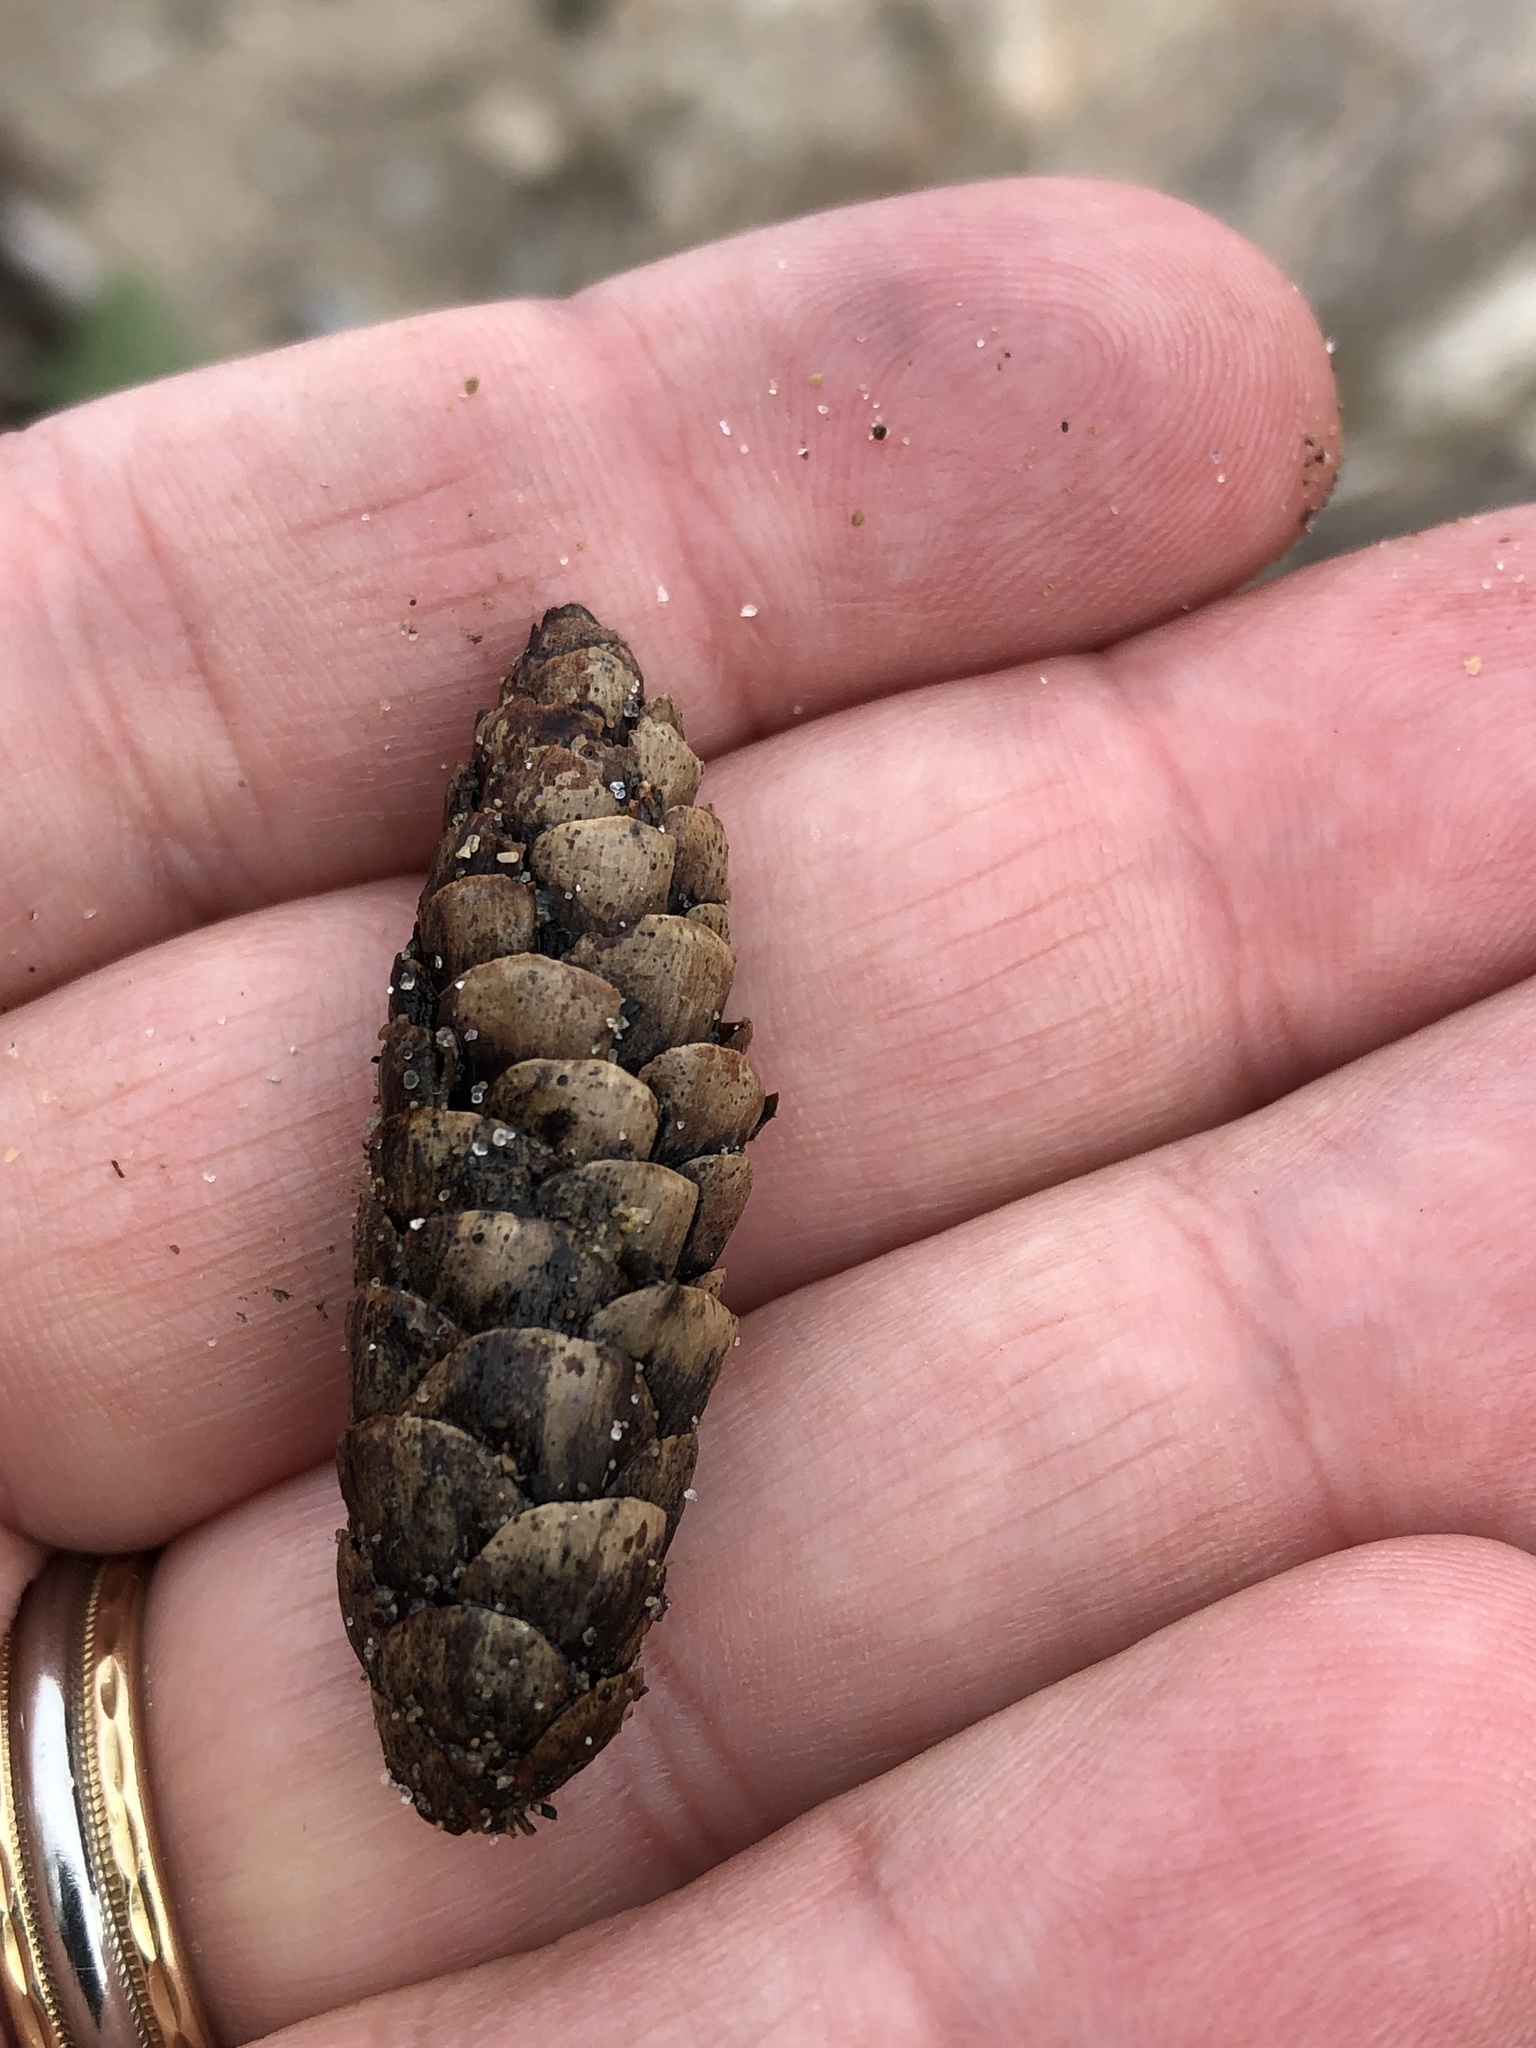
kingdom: Plantae
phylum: Tracheophyta
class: Pinopsida
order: Pinales
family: Pinaceae
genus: Picea
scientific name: Picea glauca
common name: White spruce
